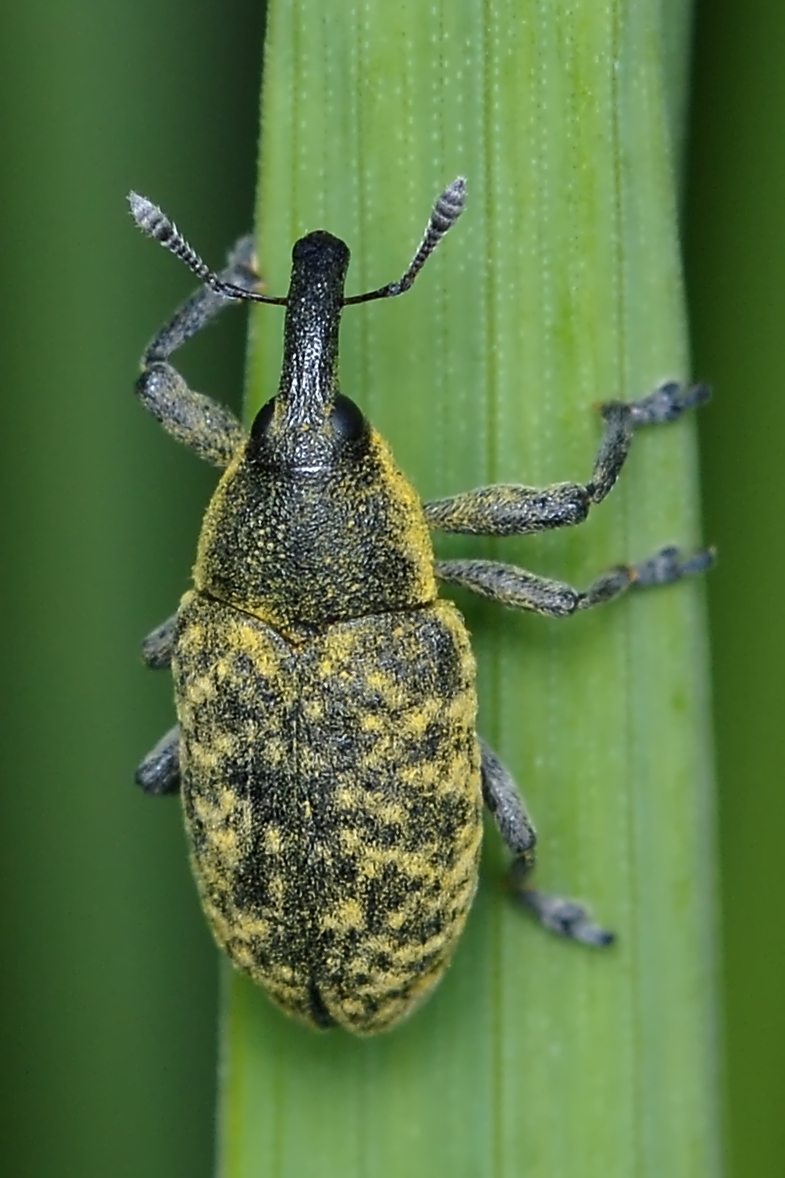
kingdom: Animalia
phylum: Arthropoda
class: Insecta
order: Coleoptera
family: Curculionidae
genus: Larinus
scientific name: Larinus carlinae
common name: Weevil
